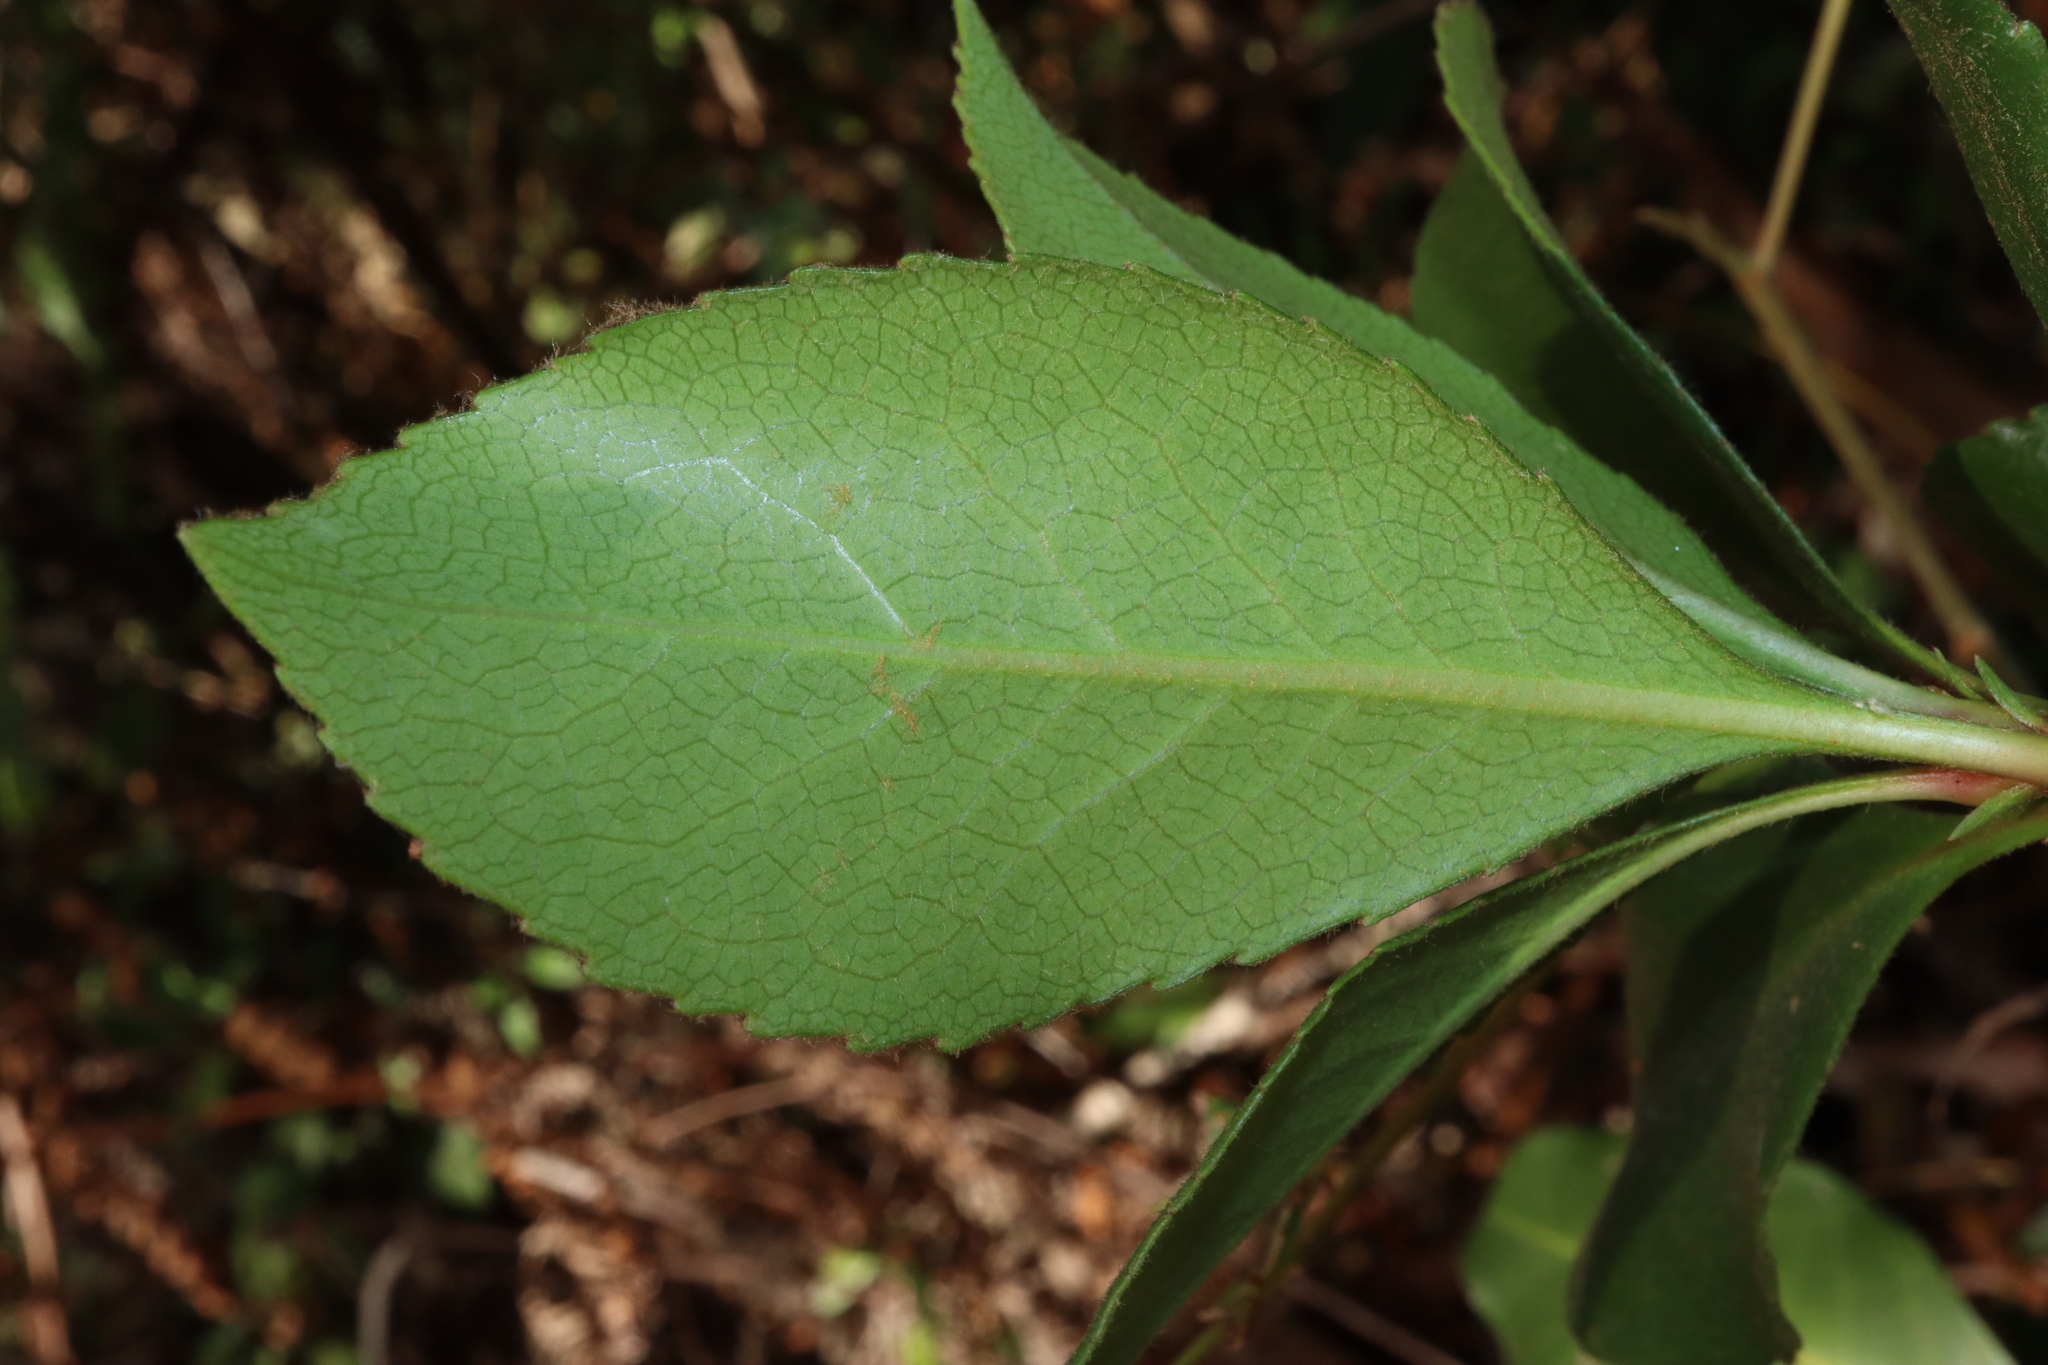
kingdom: Plantae
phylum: Tracheophyta
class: Magnoliopsida
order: Rosales
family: Rosaceae
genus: Rhaphiolepis
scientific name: Rhaphiolepis indica
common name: India-hawthorn
